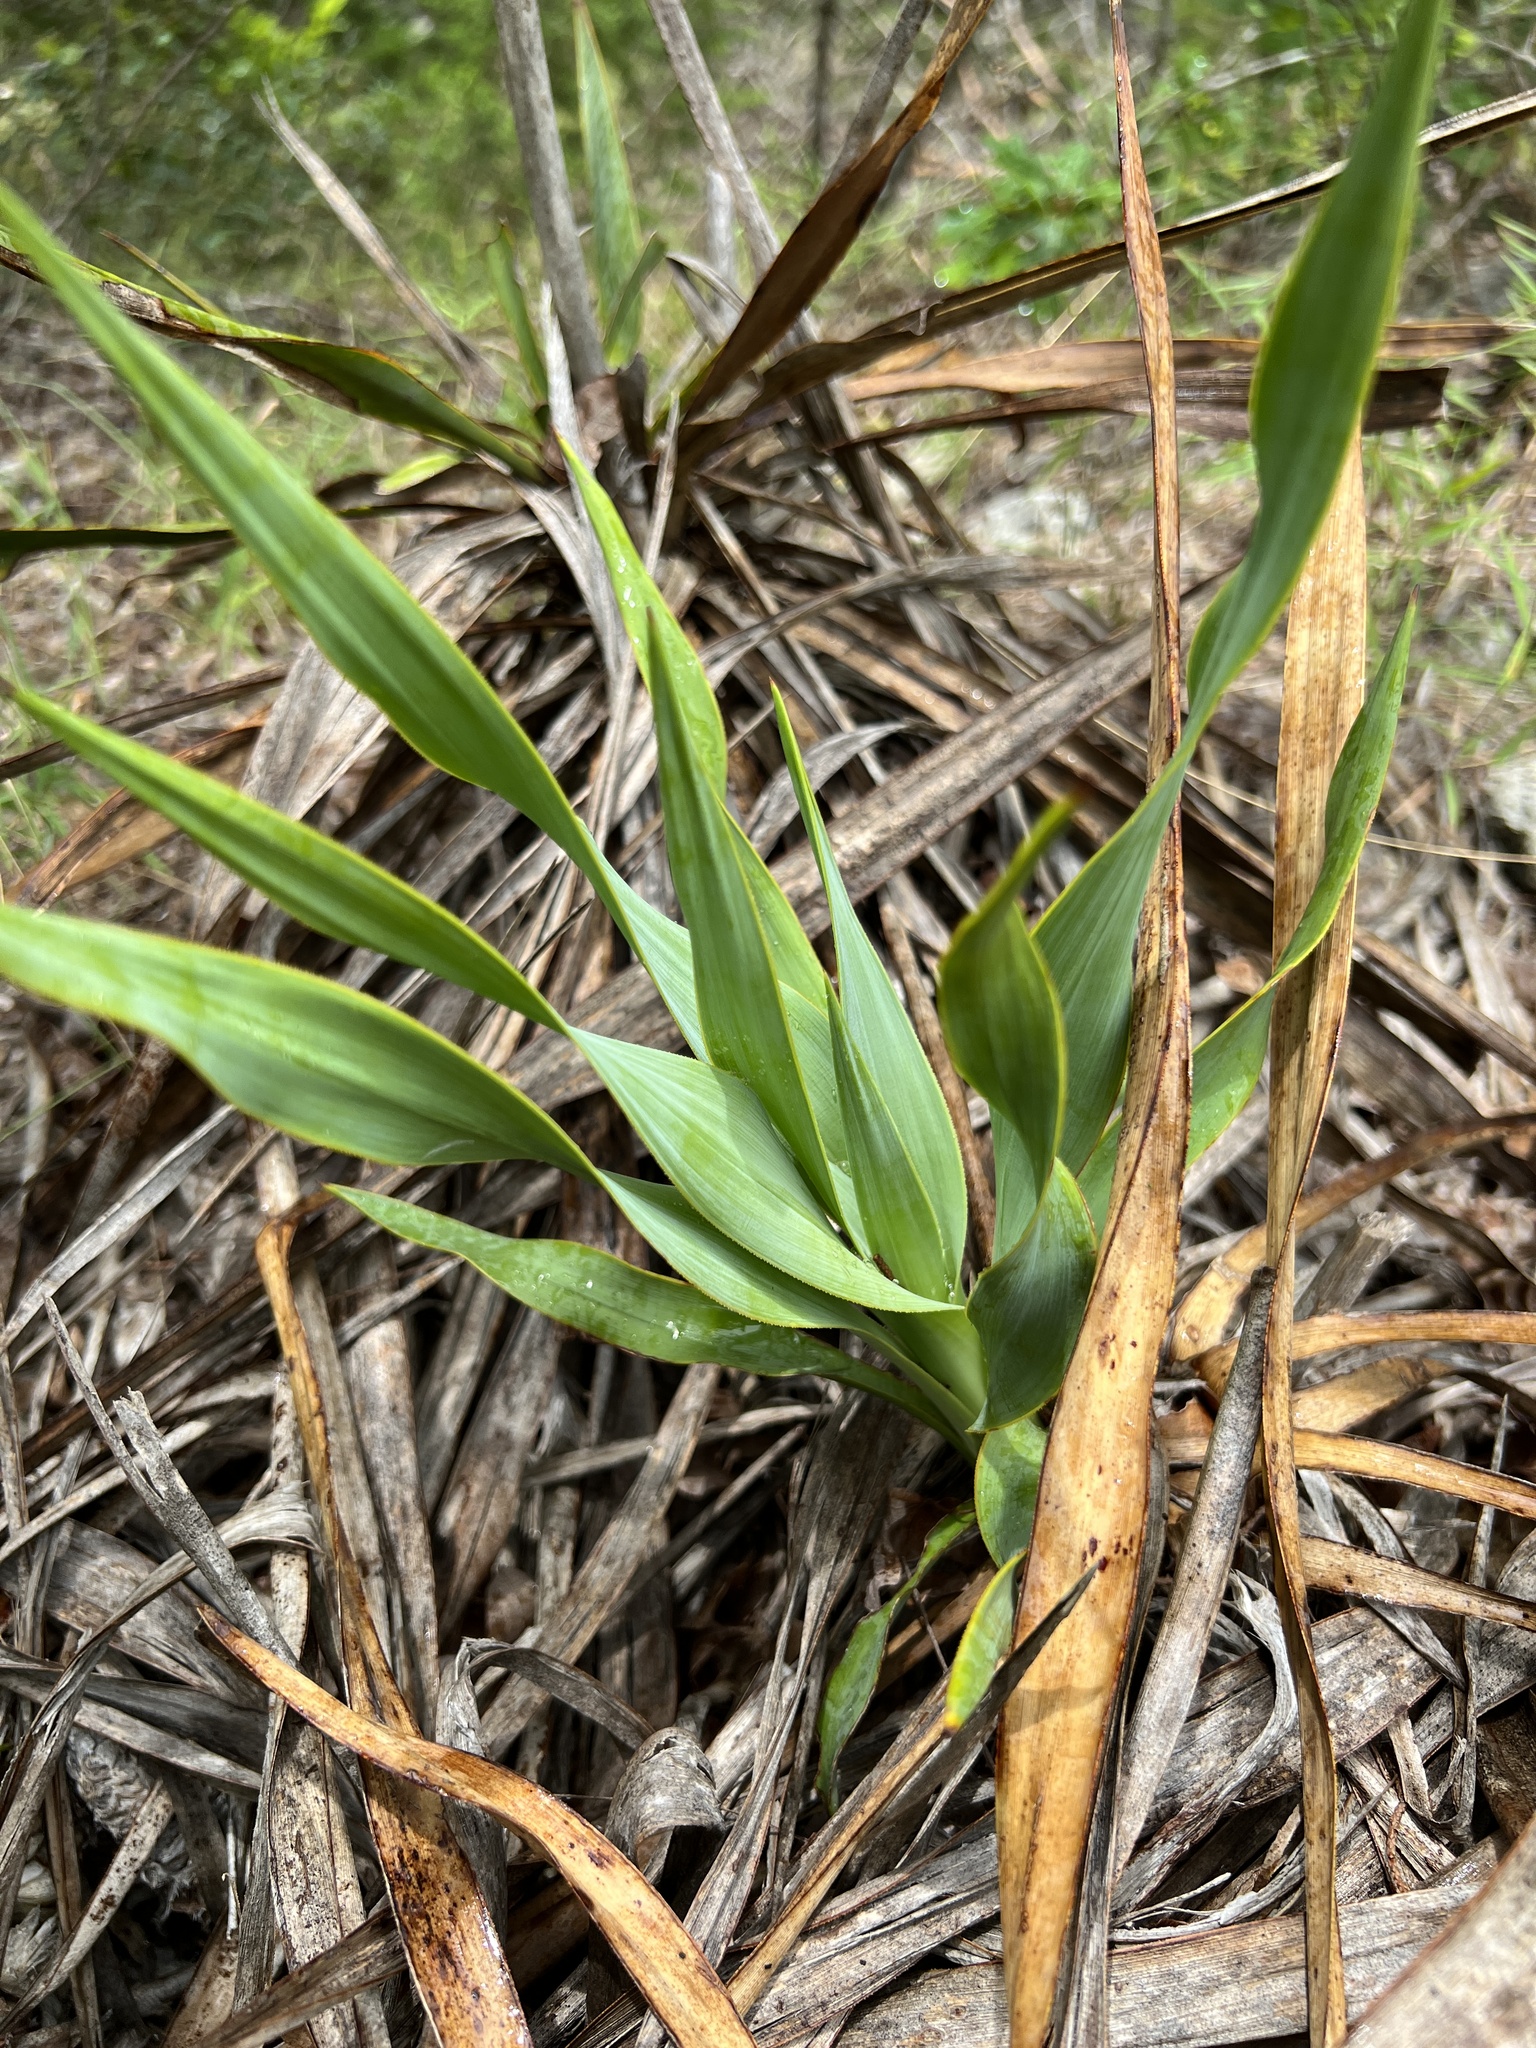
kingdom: Plantae
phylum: Tracheophyta
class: Liliopsida
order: Asparagales
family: Asparagaceae
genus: Yucca
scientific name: Yucca rupicola
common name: Twisted-leaf spanish-dagger
